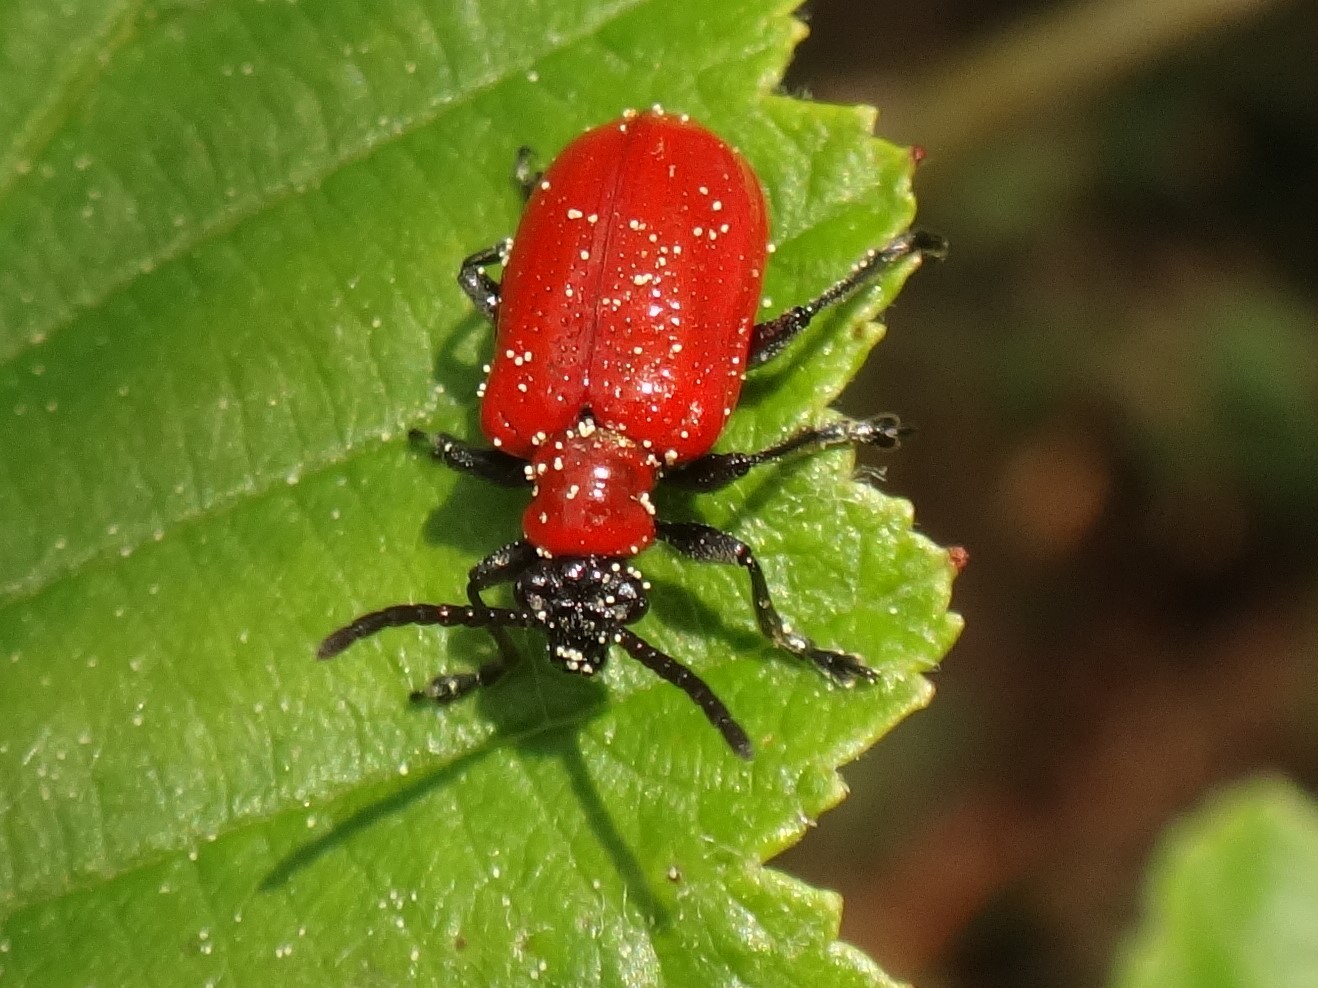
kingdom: Animalia
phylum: Arthropoda
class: Insecta
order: Coleoptera
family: Chrysomelidae
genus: Lilioceris
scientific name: Lilioceris lilii
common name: Lily beetle
